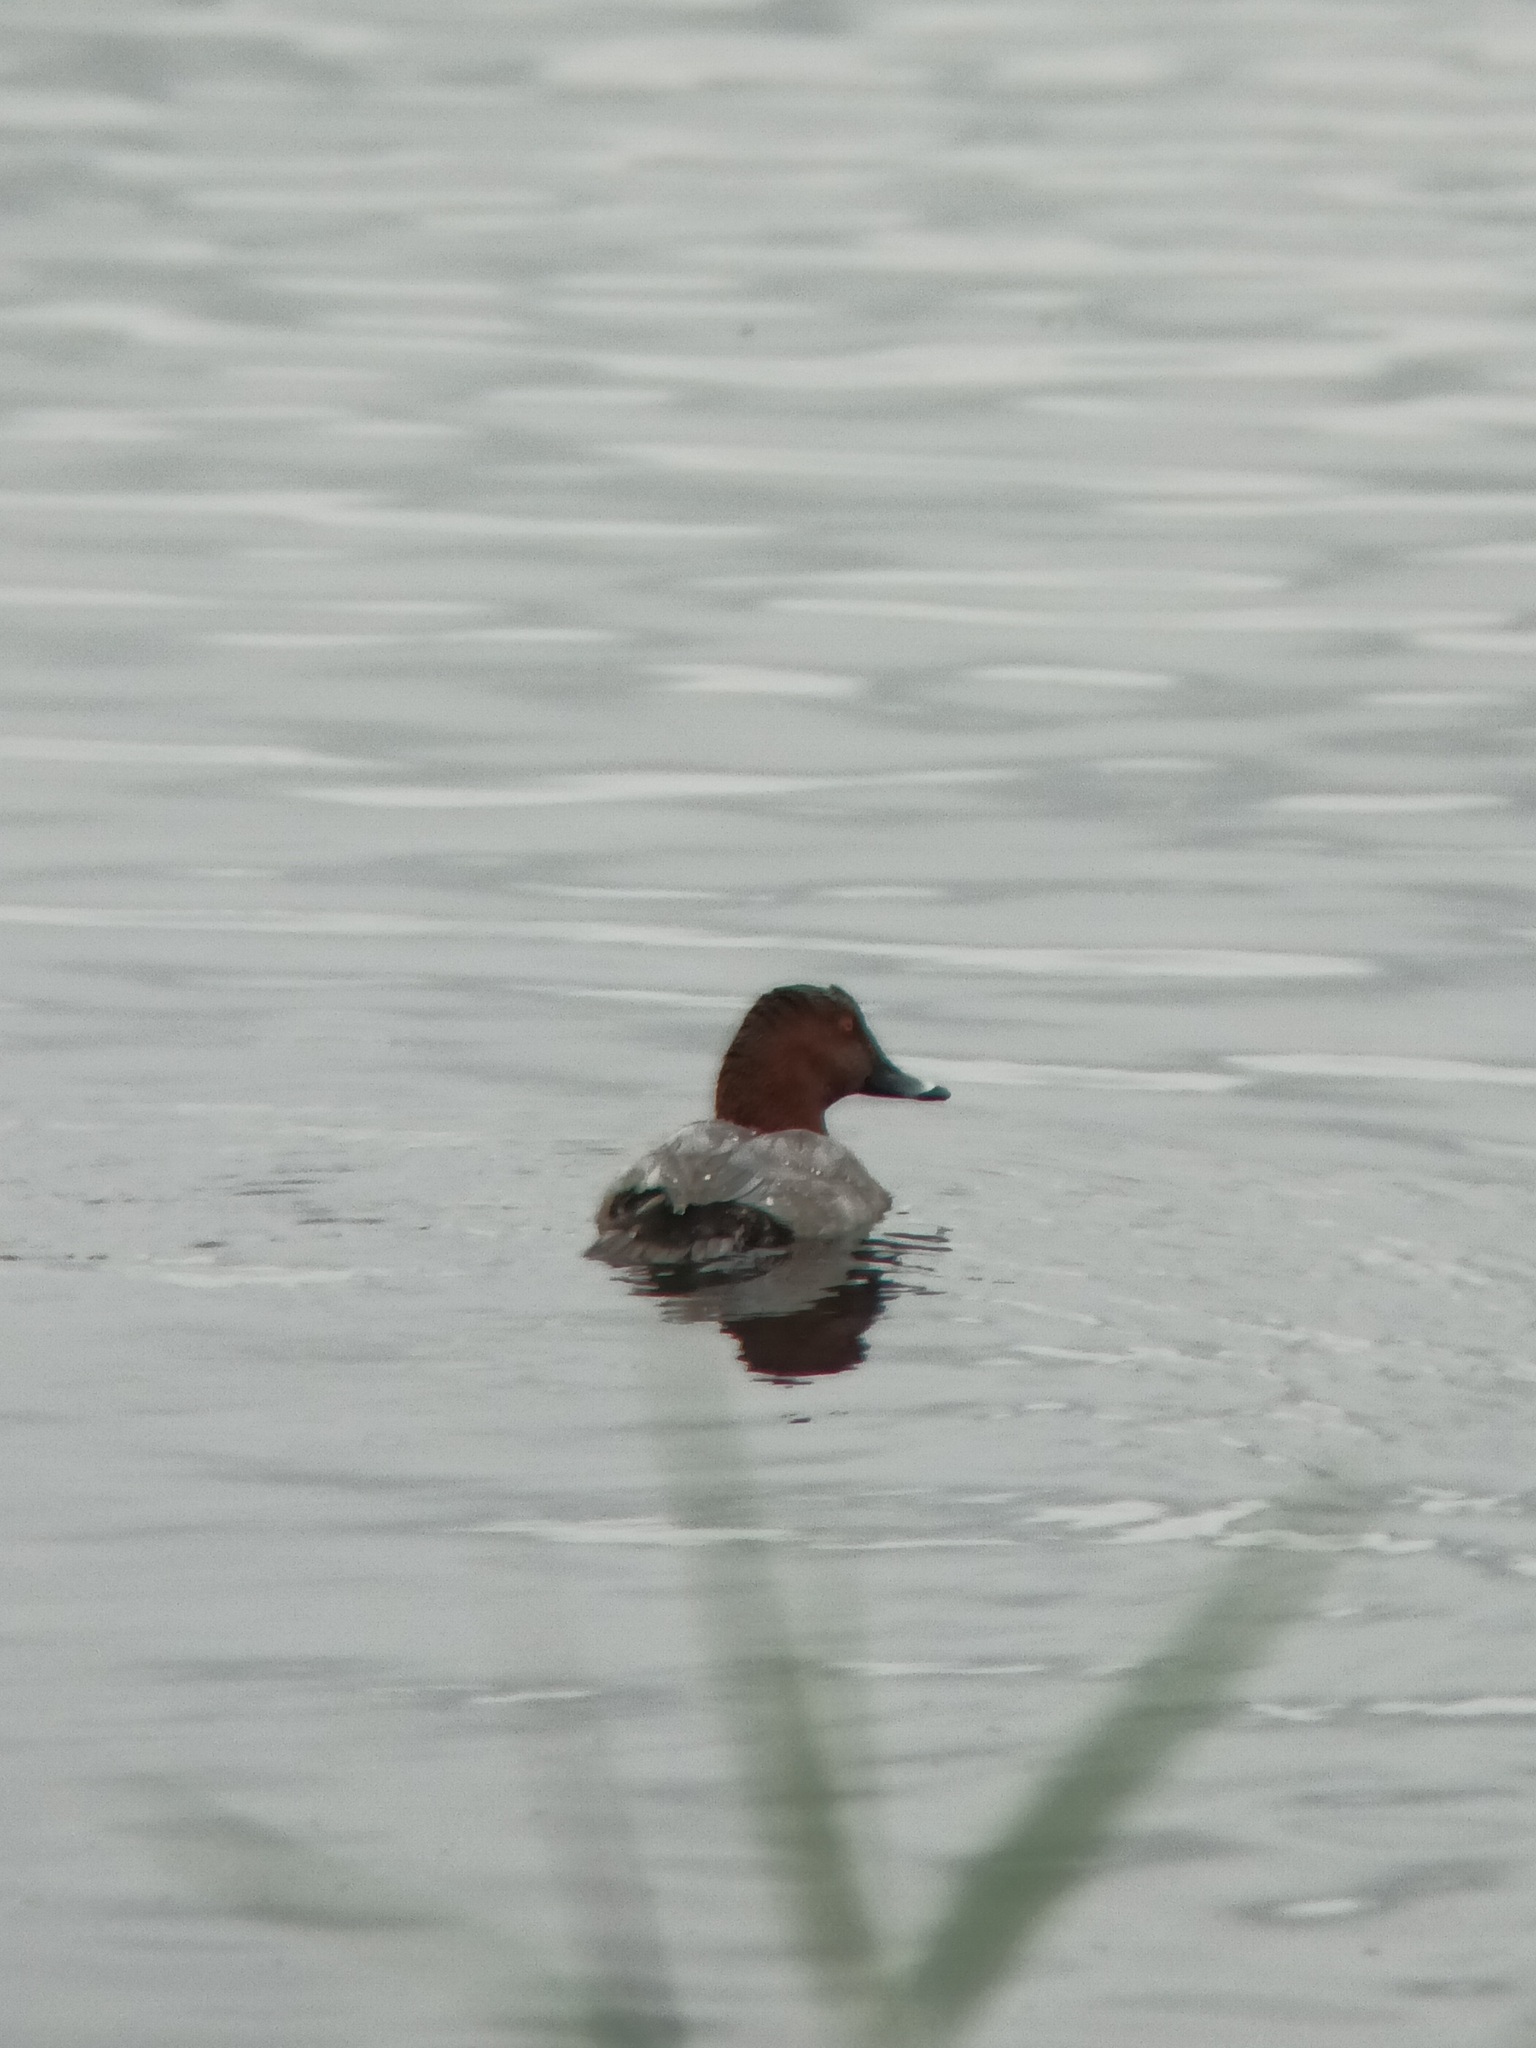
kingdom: Animalia
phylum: Chordata
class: Aves
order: Anseriformes
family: Anatidae
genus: Aythya
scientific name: Aythya ferina
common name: Common pochard
